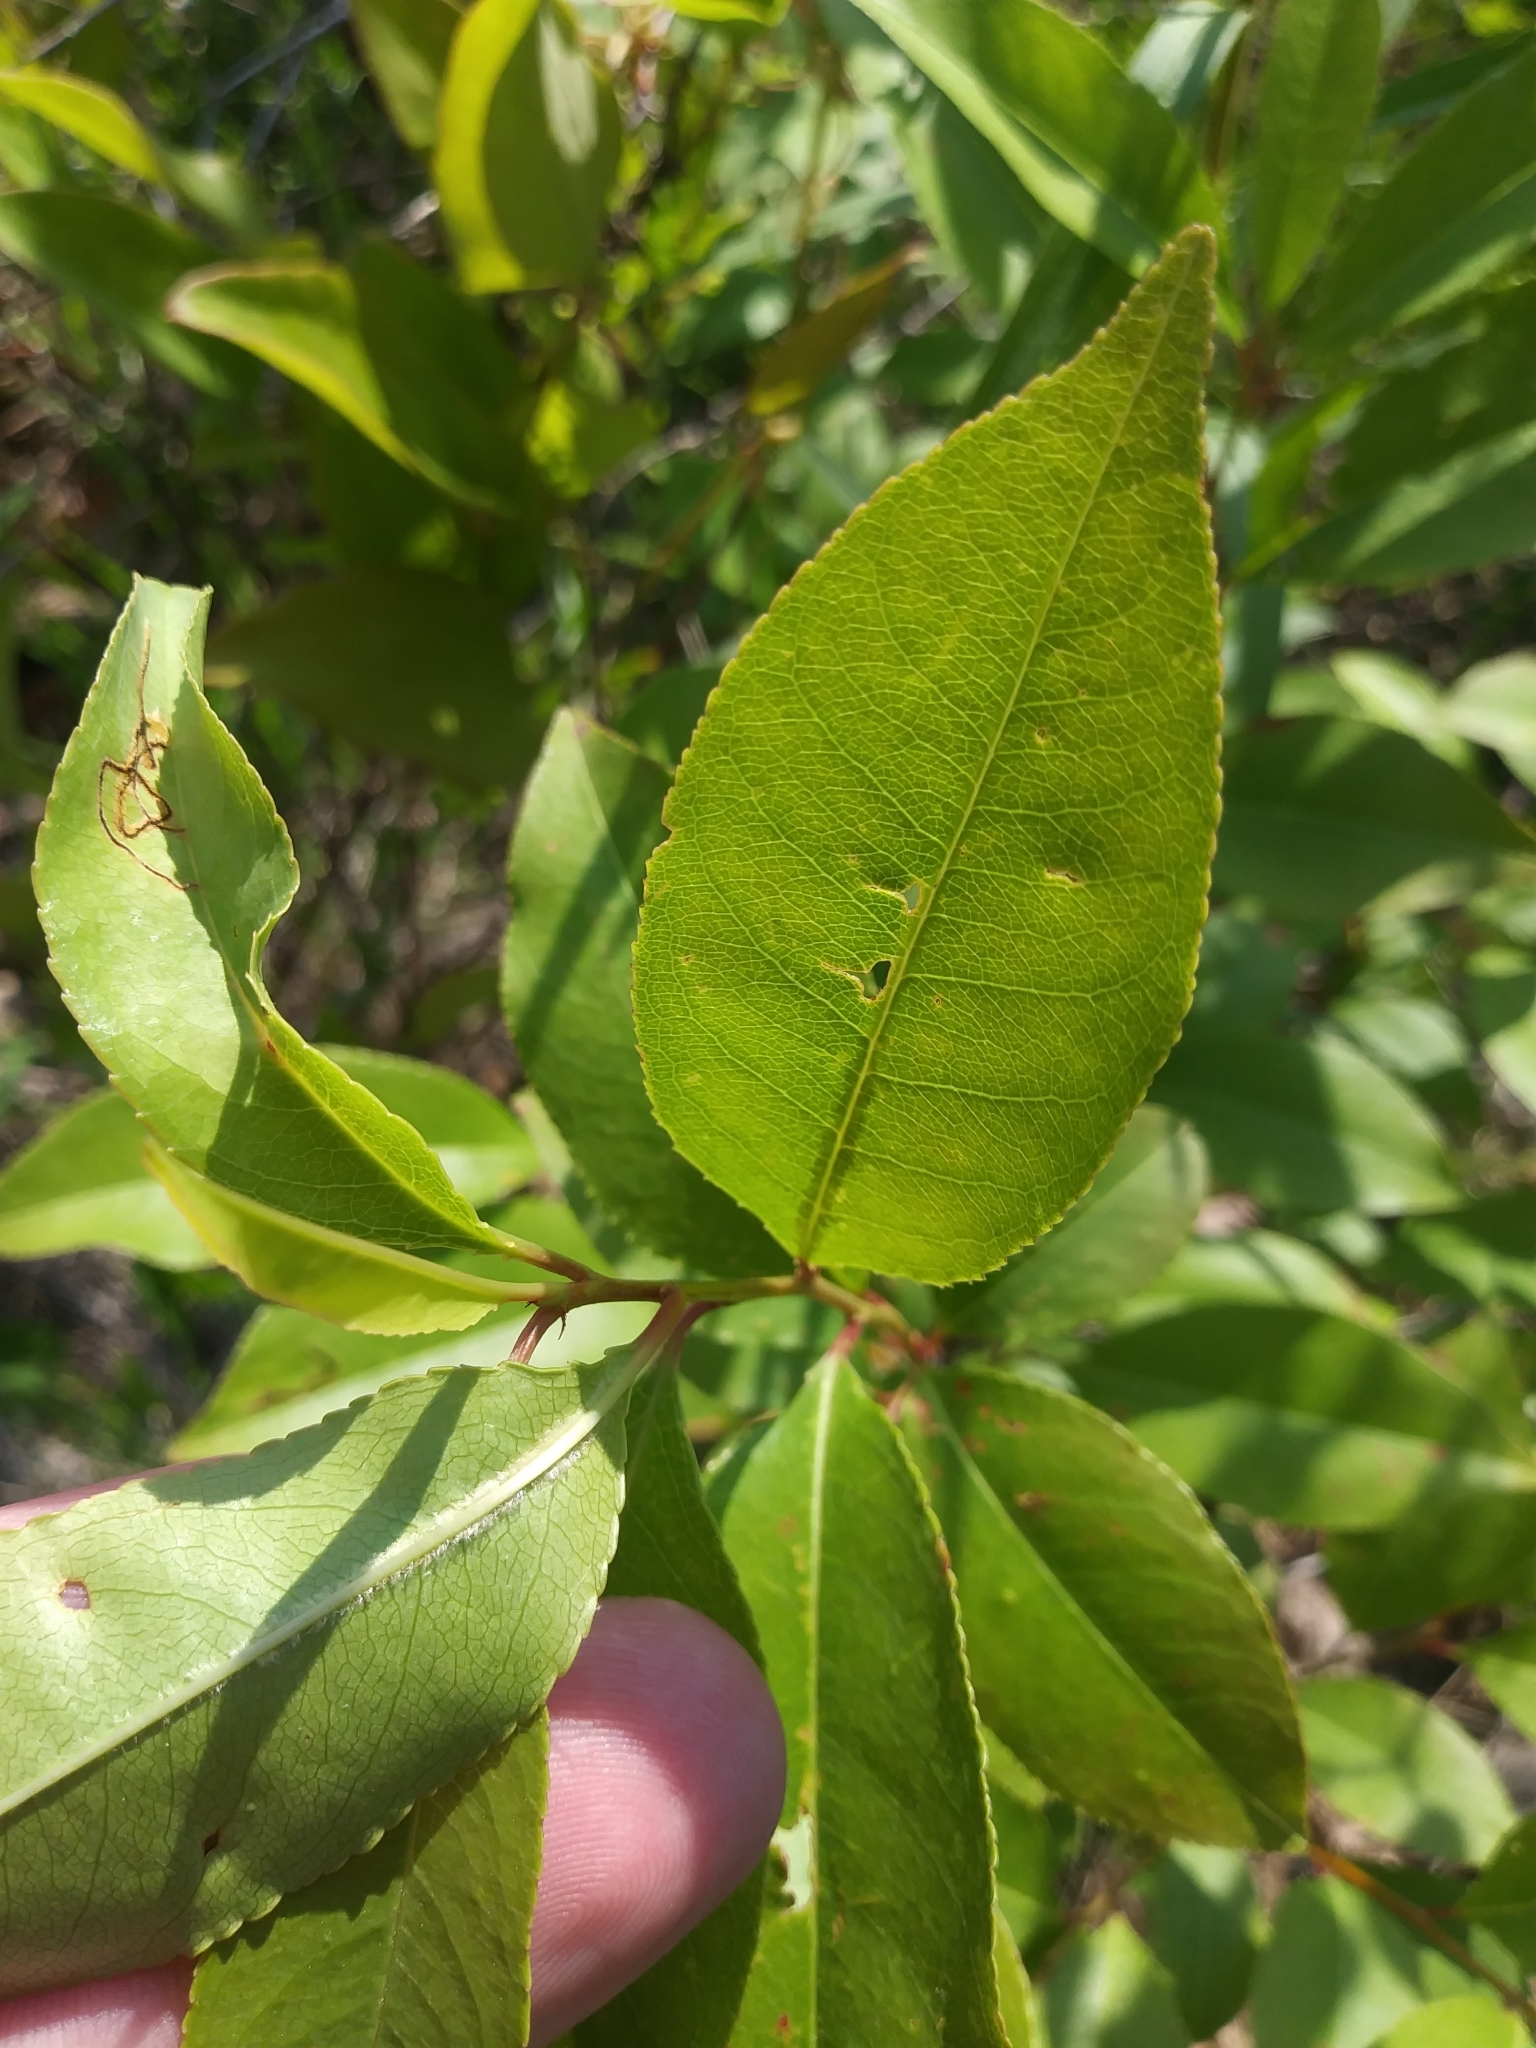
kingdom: Plantae
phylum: Tracheophyta
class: Magnoliopsida
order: Rosales
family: Rosaceae
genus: Prunus
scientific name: Prunus serotina
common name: Black cherry
